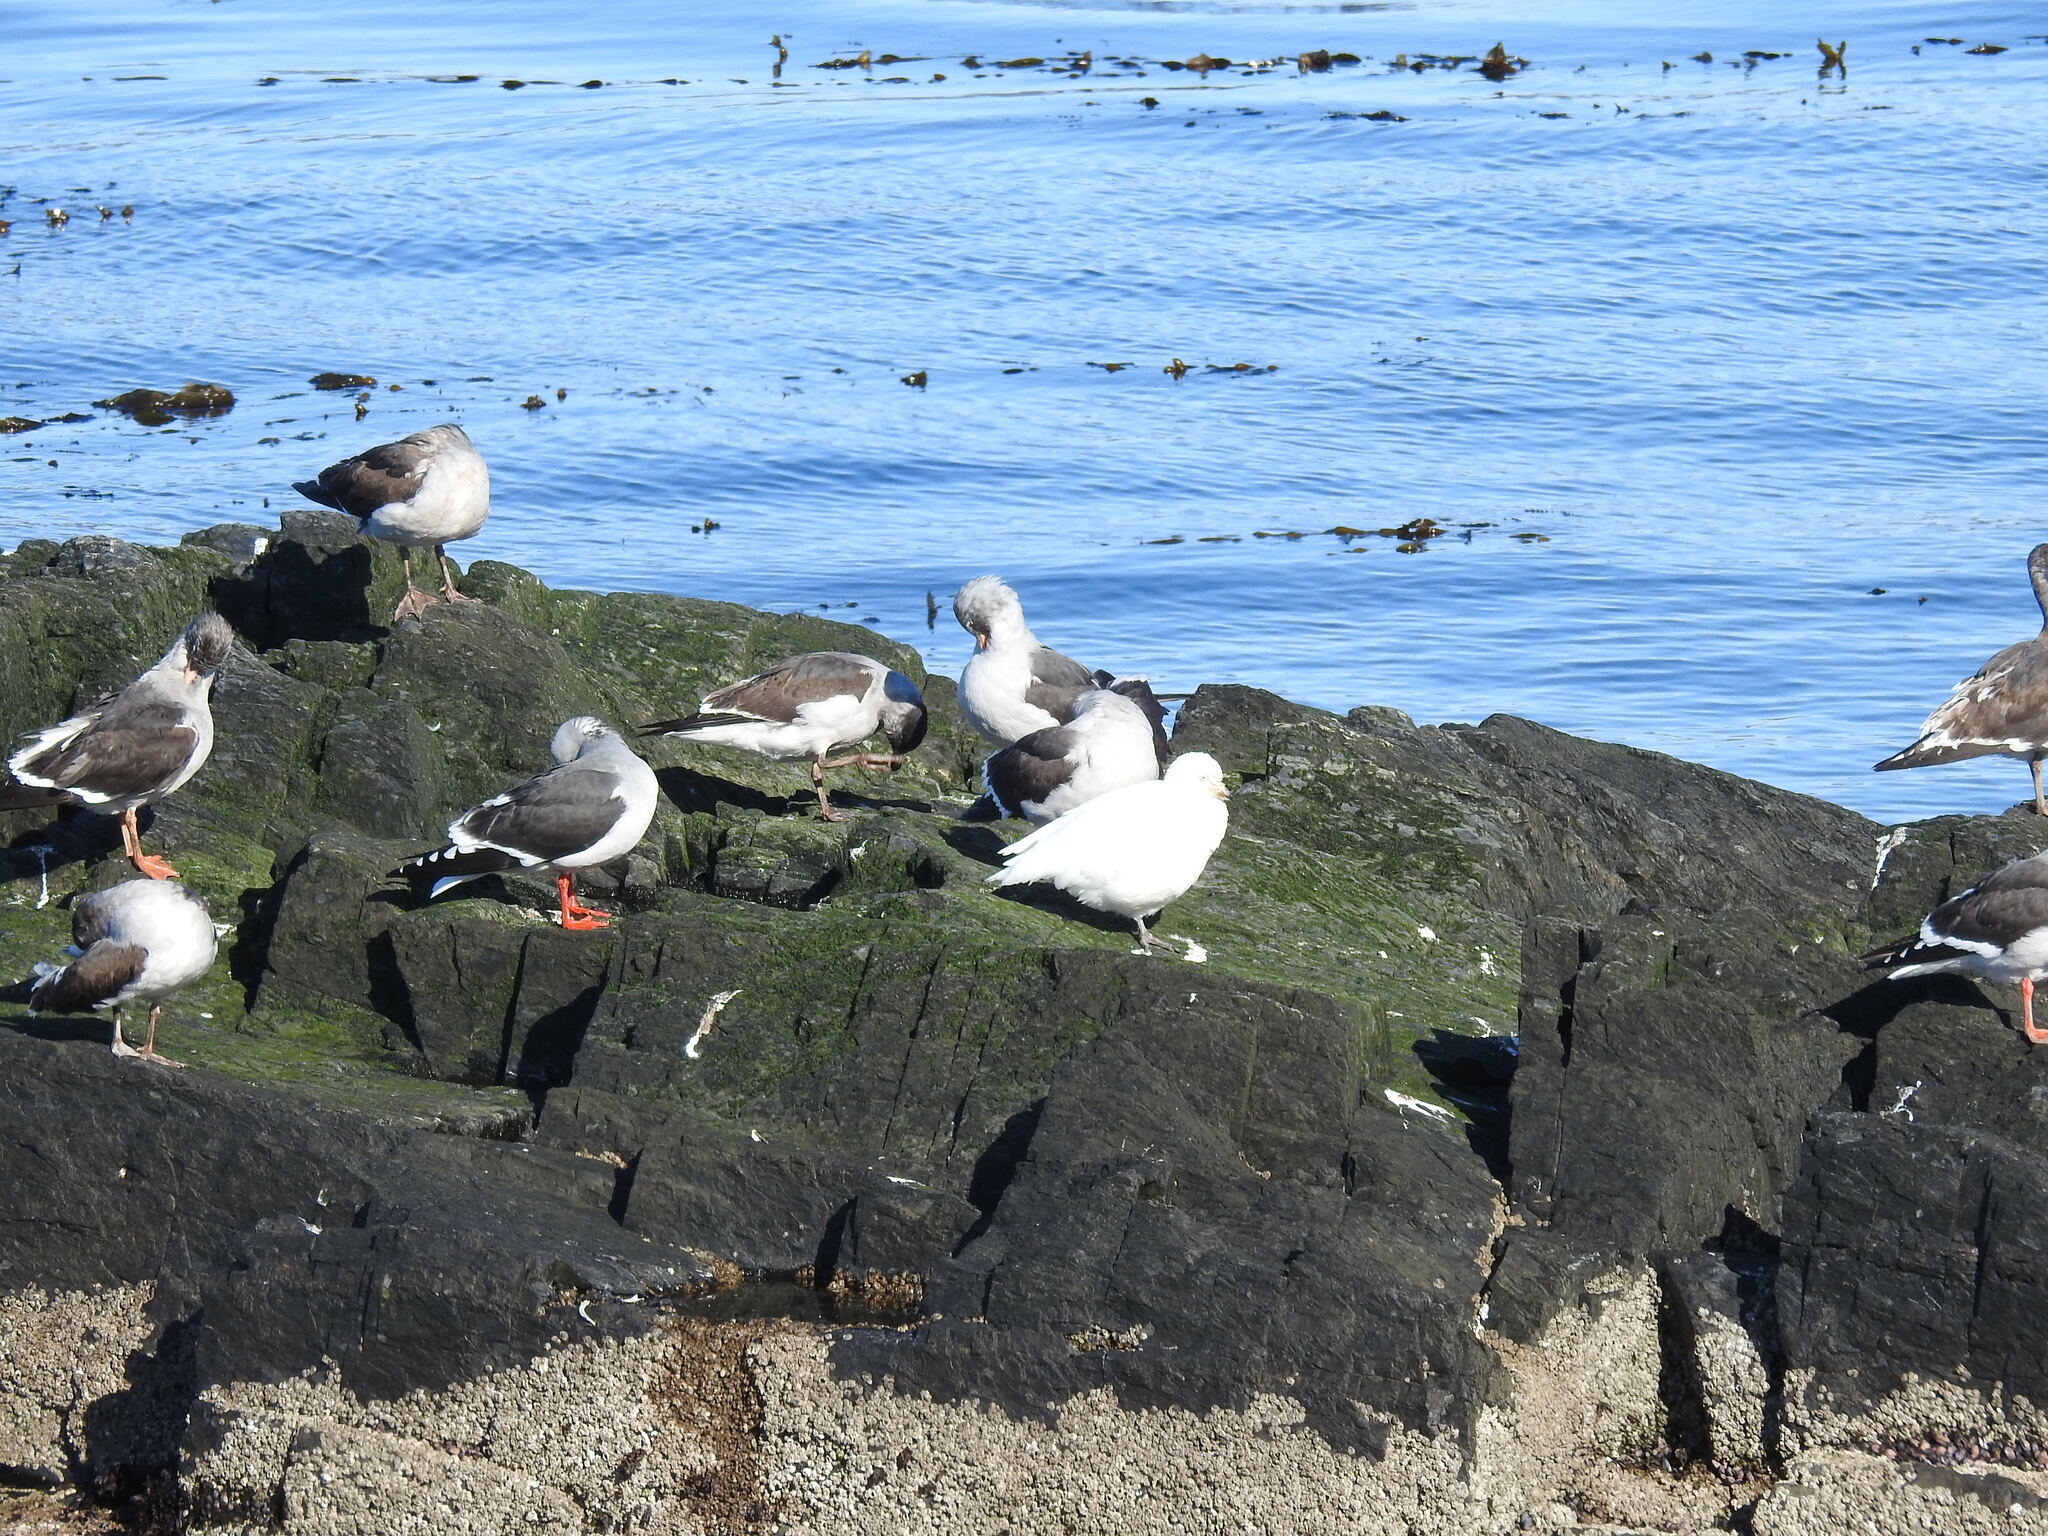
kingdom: Animalia
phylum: Chordata
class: Aves
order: Charadriiformes
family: Chionidae
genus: Chionis
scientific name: Chionis albus
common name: Snowy sheathbill
